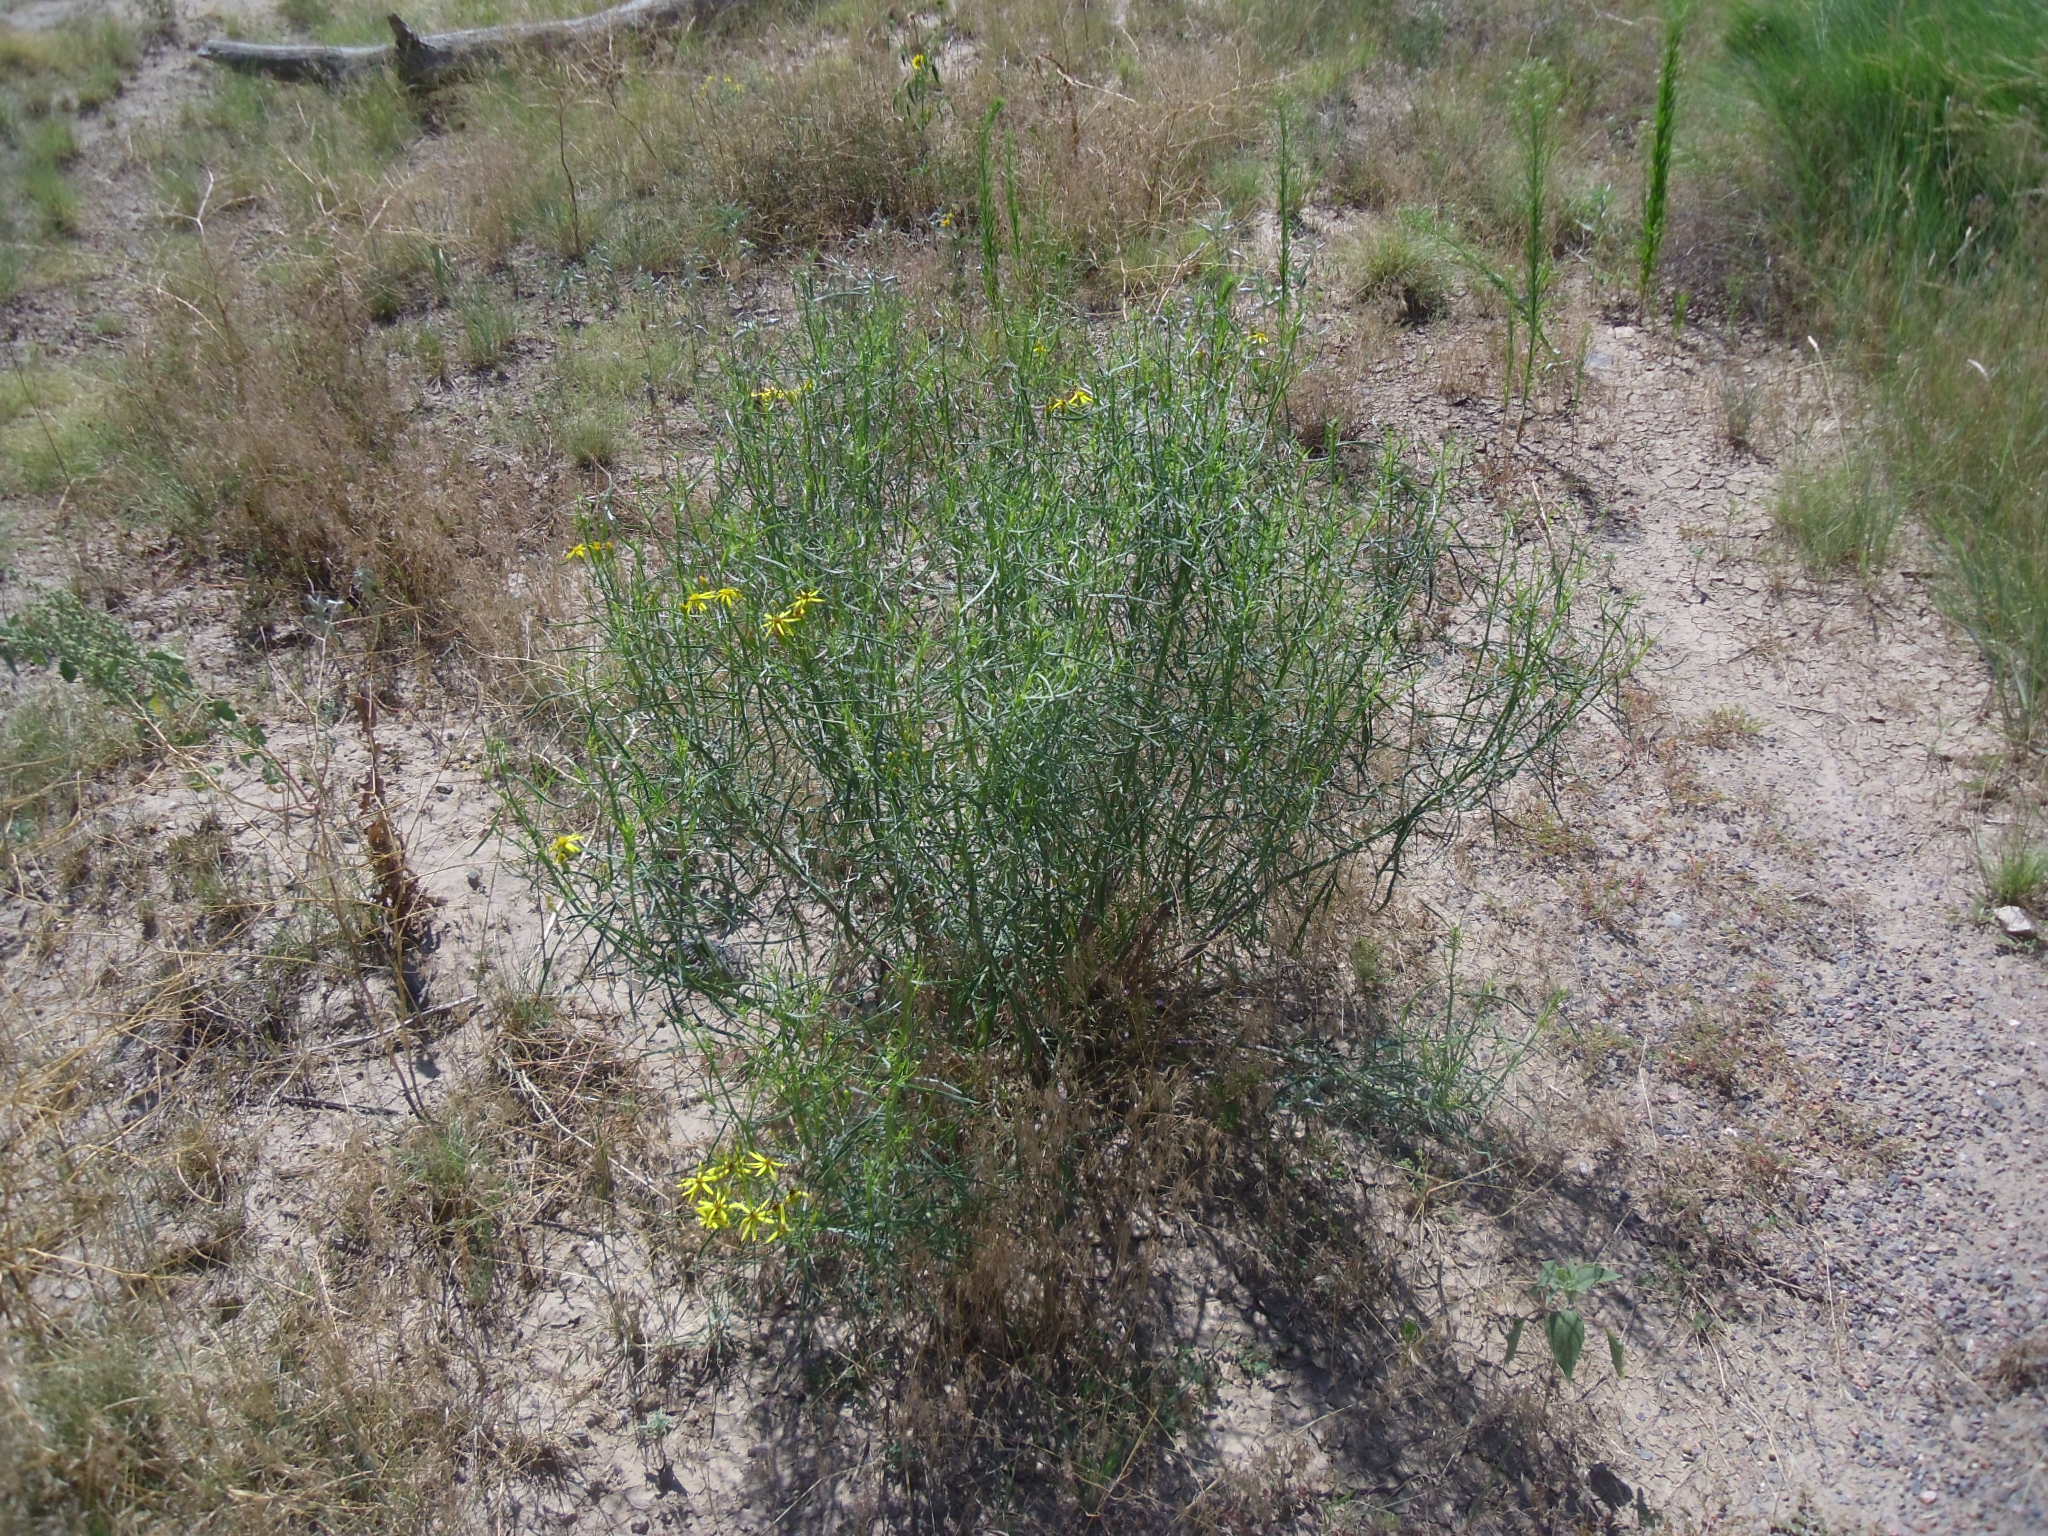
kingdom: Plantae
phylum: Tracheophyta
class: Magnoliopsida
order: Asterales
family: Asteraceae
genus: Senecio
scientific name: Senecio spartioides
